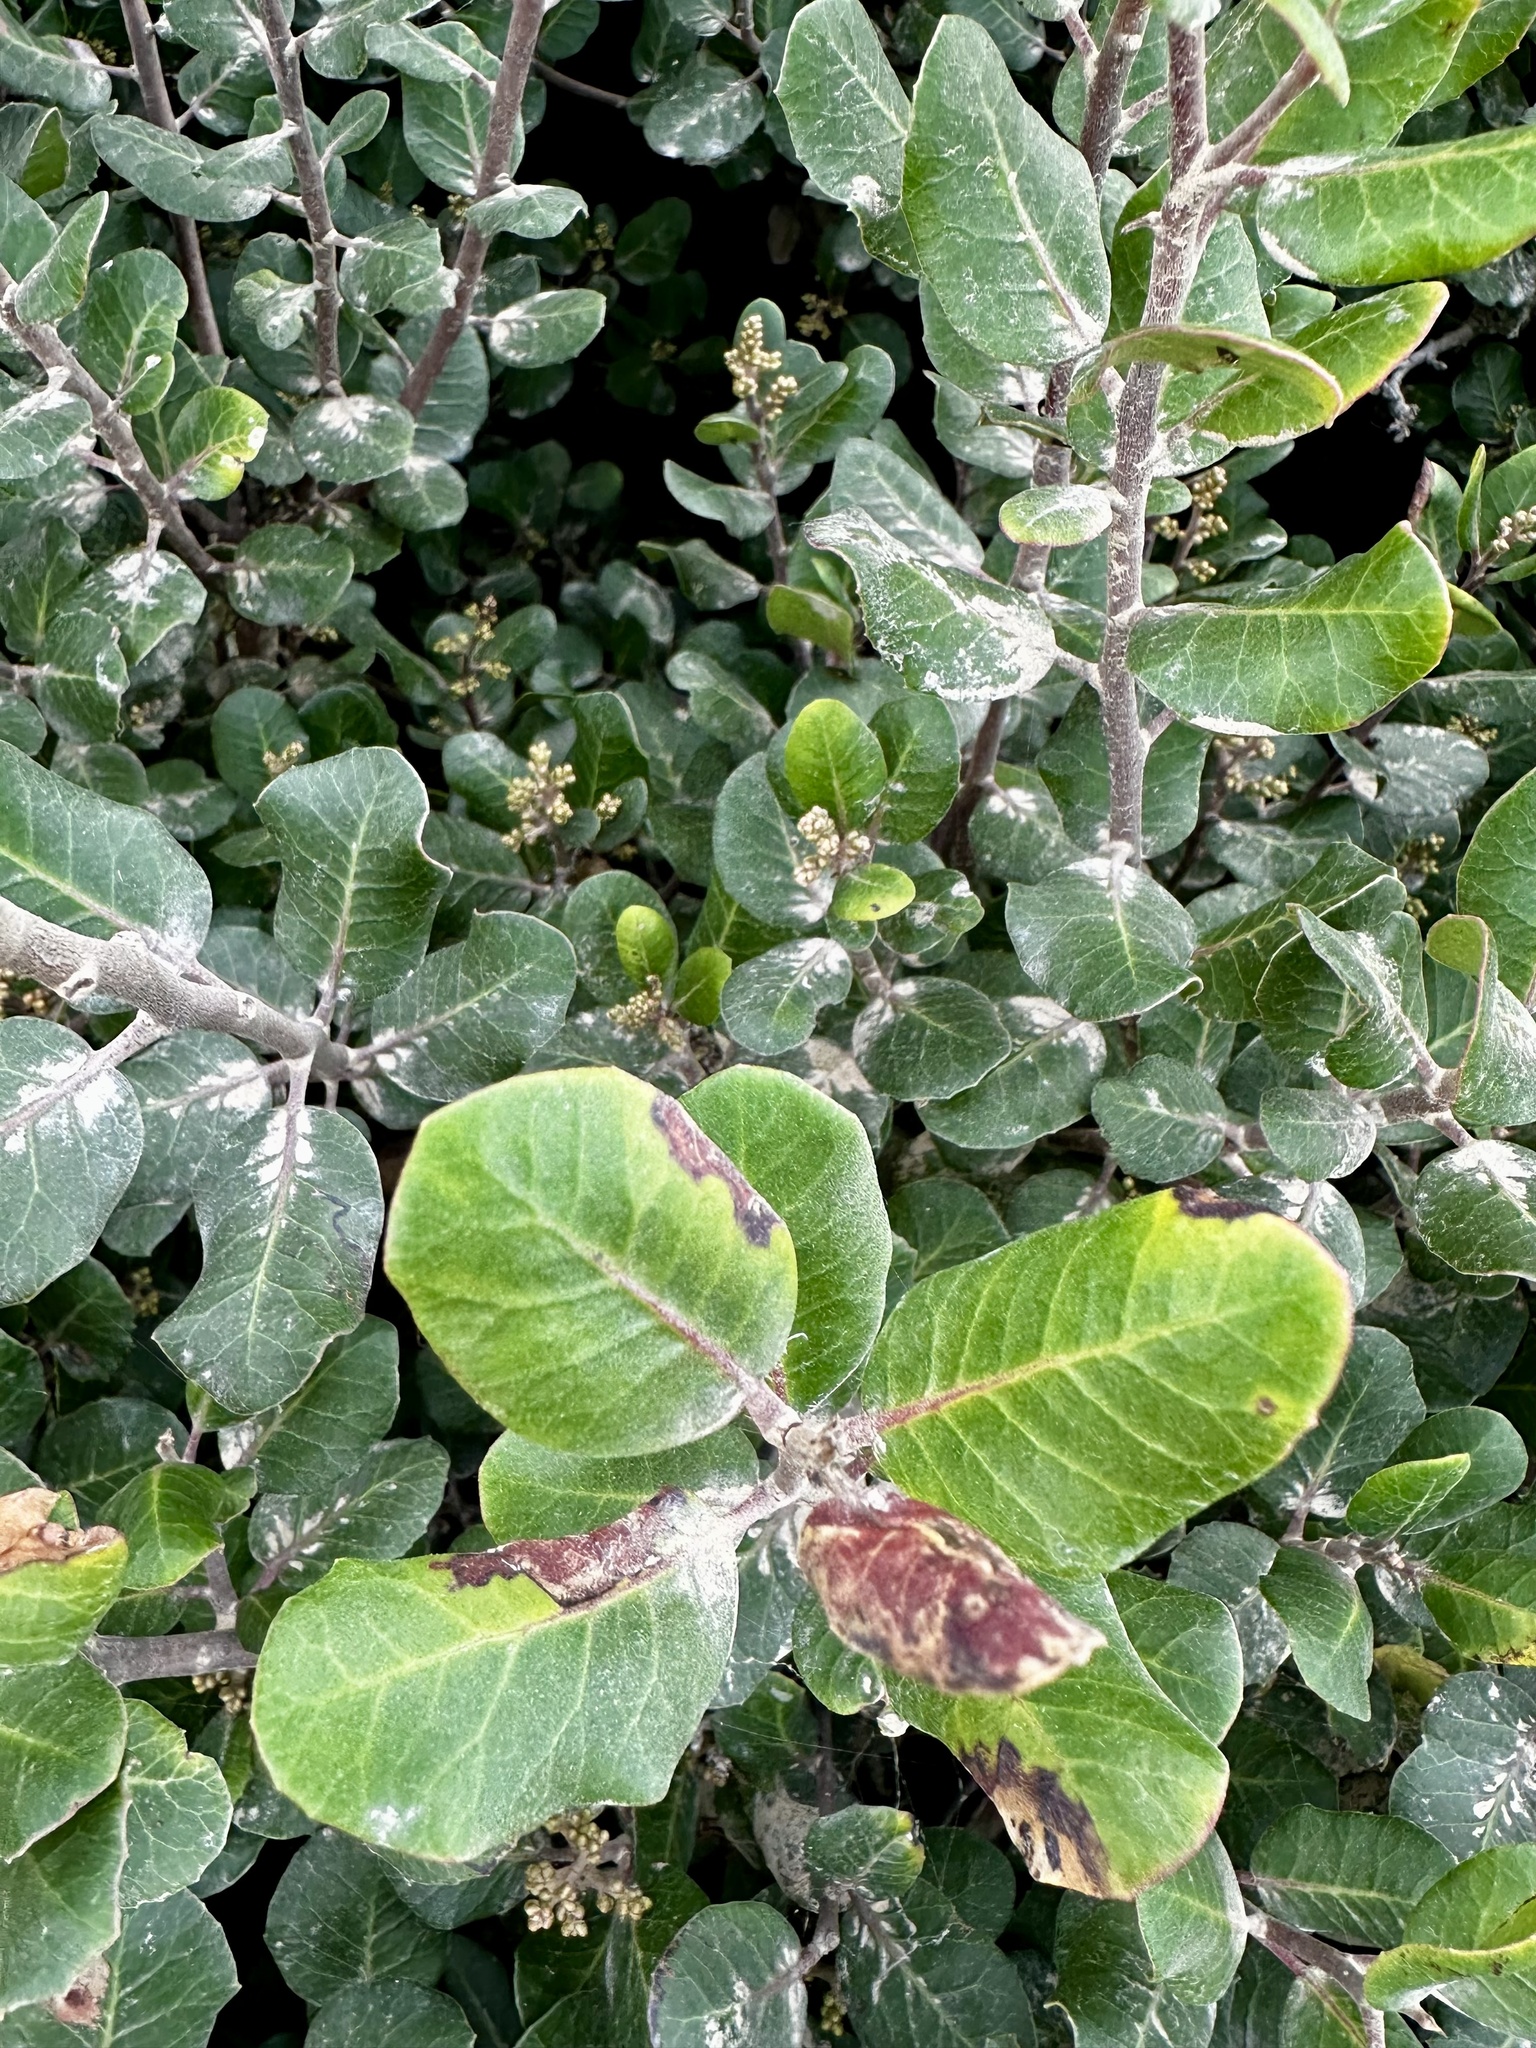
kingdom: Plantae
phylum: Tracheophyta
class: Magnoliopsida
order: Sapindales
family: Anacardiaceae
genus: Rhus
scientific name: Rhus integrifolia
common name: Lemonade sumac
